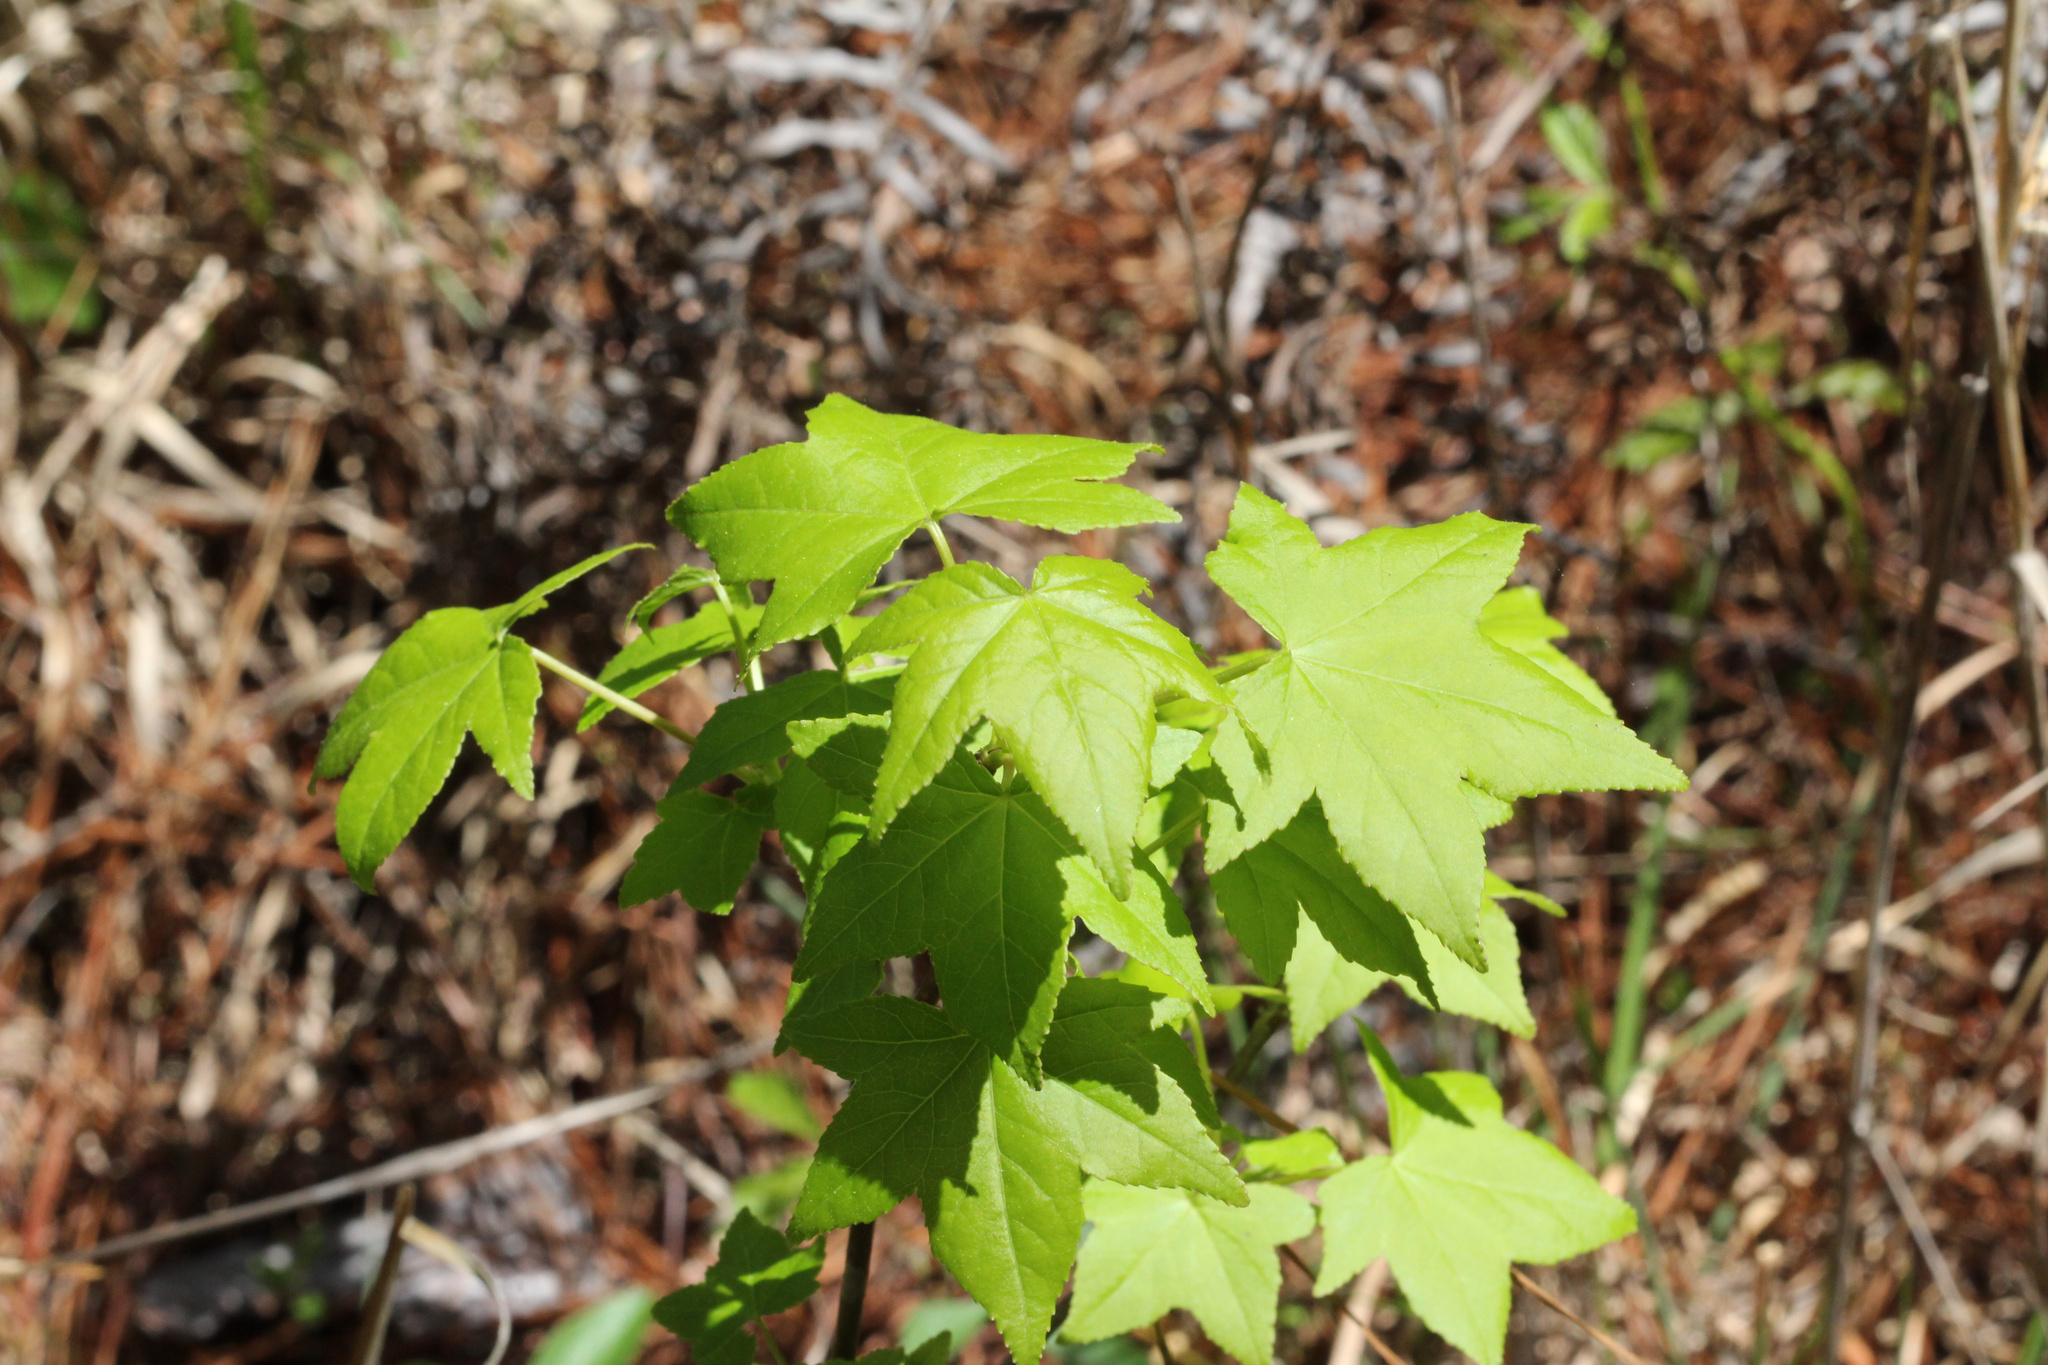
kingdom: Plantae
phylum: Tracheophyta
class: Magnoliopsida
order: Saxifragales
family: Altingiaceae
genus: Liquidambar
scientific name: Liquidambar styraciflua
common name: Sweet gum
